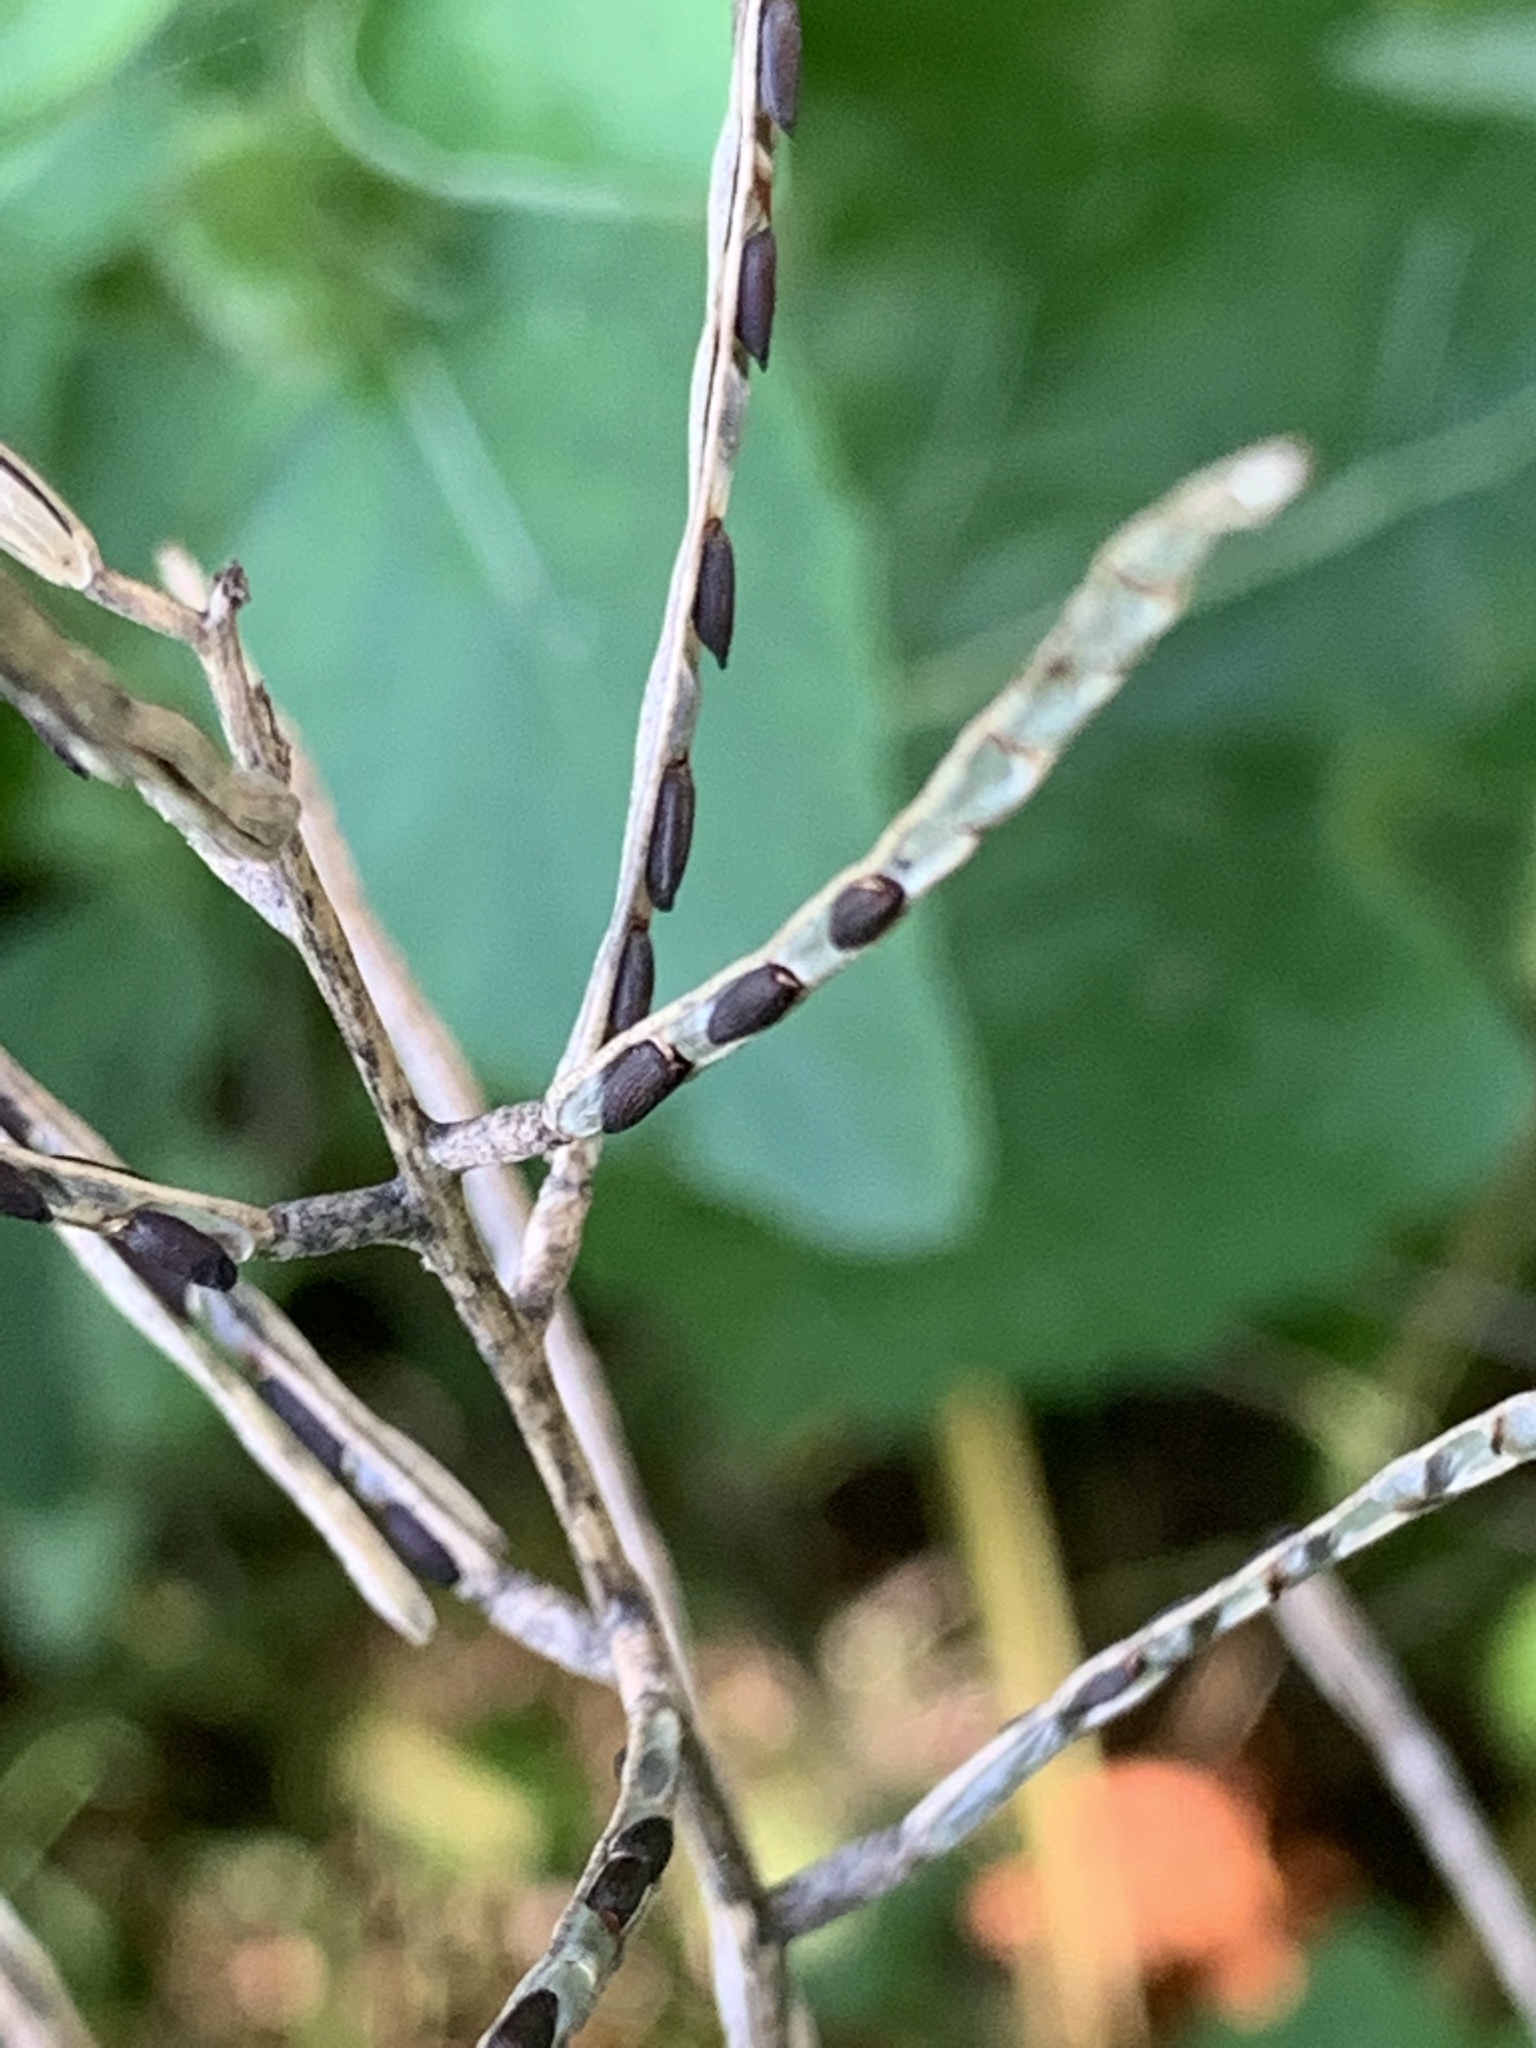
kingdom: Plantae
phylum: Tracheophyta
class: Magnoliopsida
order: Brassicales
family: Brassicaceae
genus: Alliaria
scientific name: Alliaria petiolata
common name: Garlic mustard
